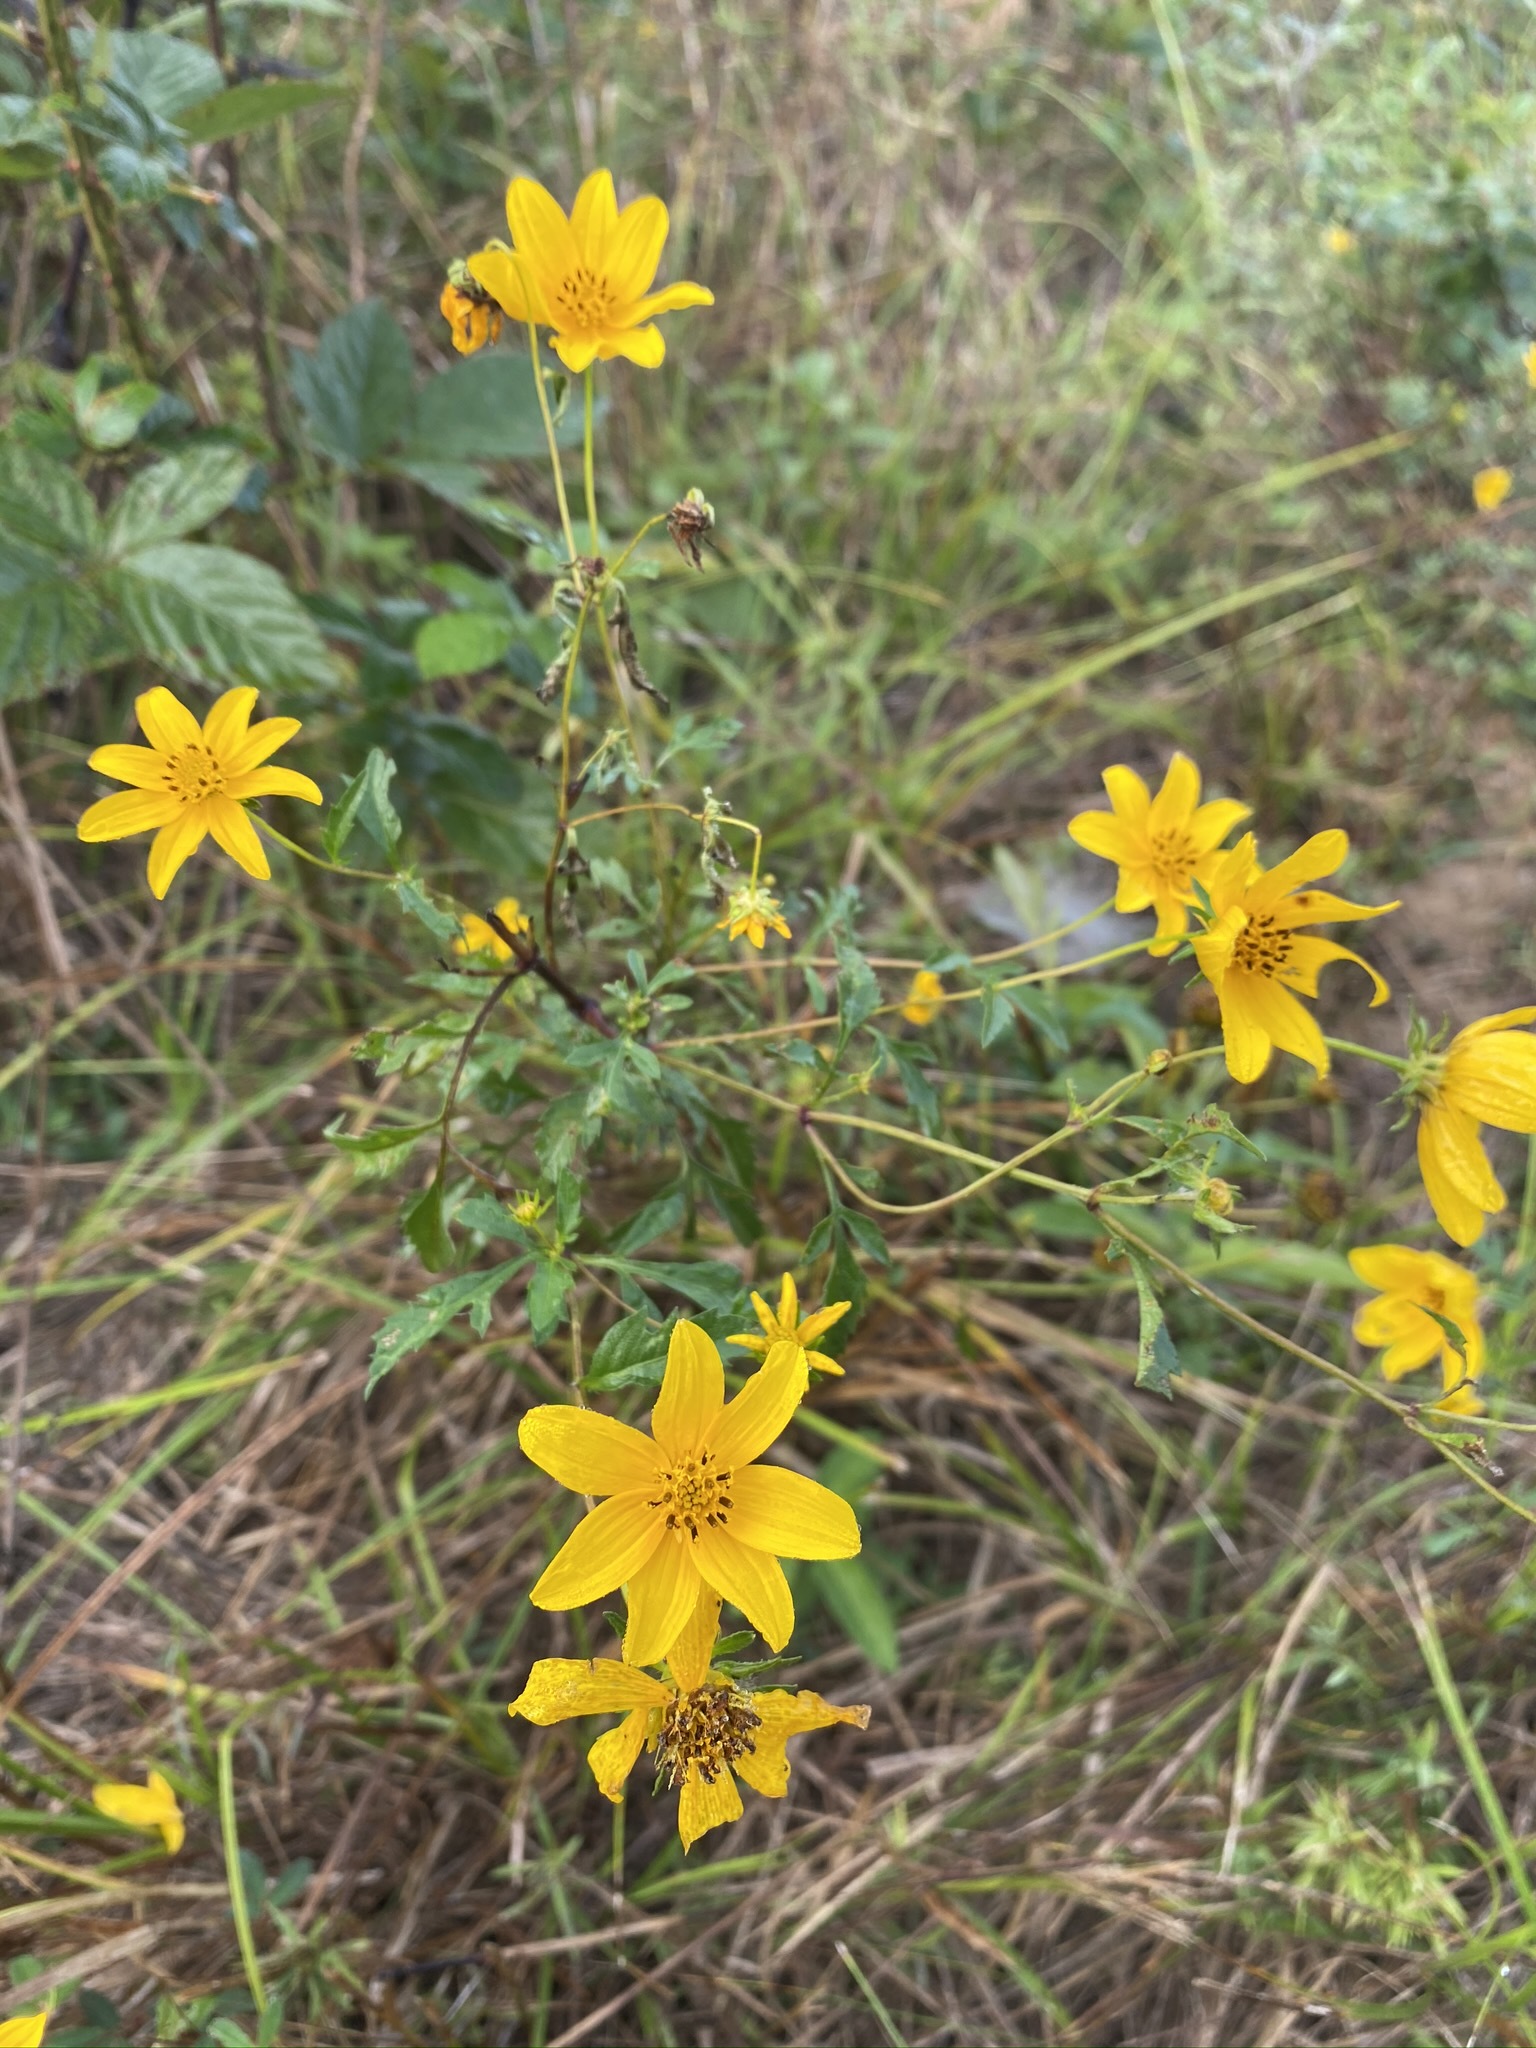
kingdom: Plantae
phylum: Tracheophyta
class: Magnoliopsida
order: Asterales
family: Asteraceae
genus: Bidens
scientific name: Bidens aristosa
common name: Western tickseed
